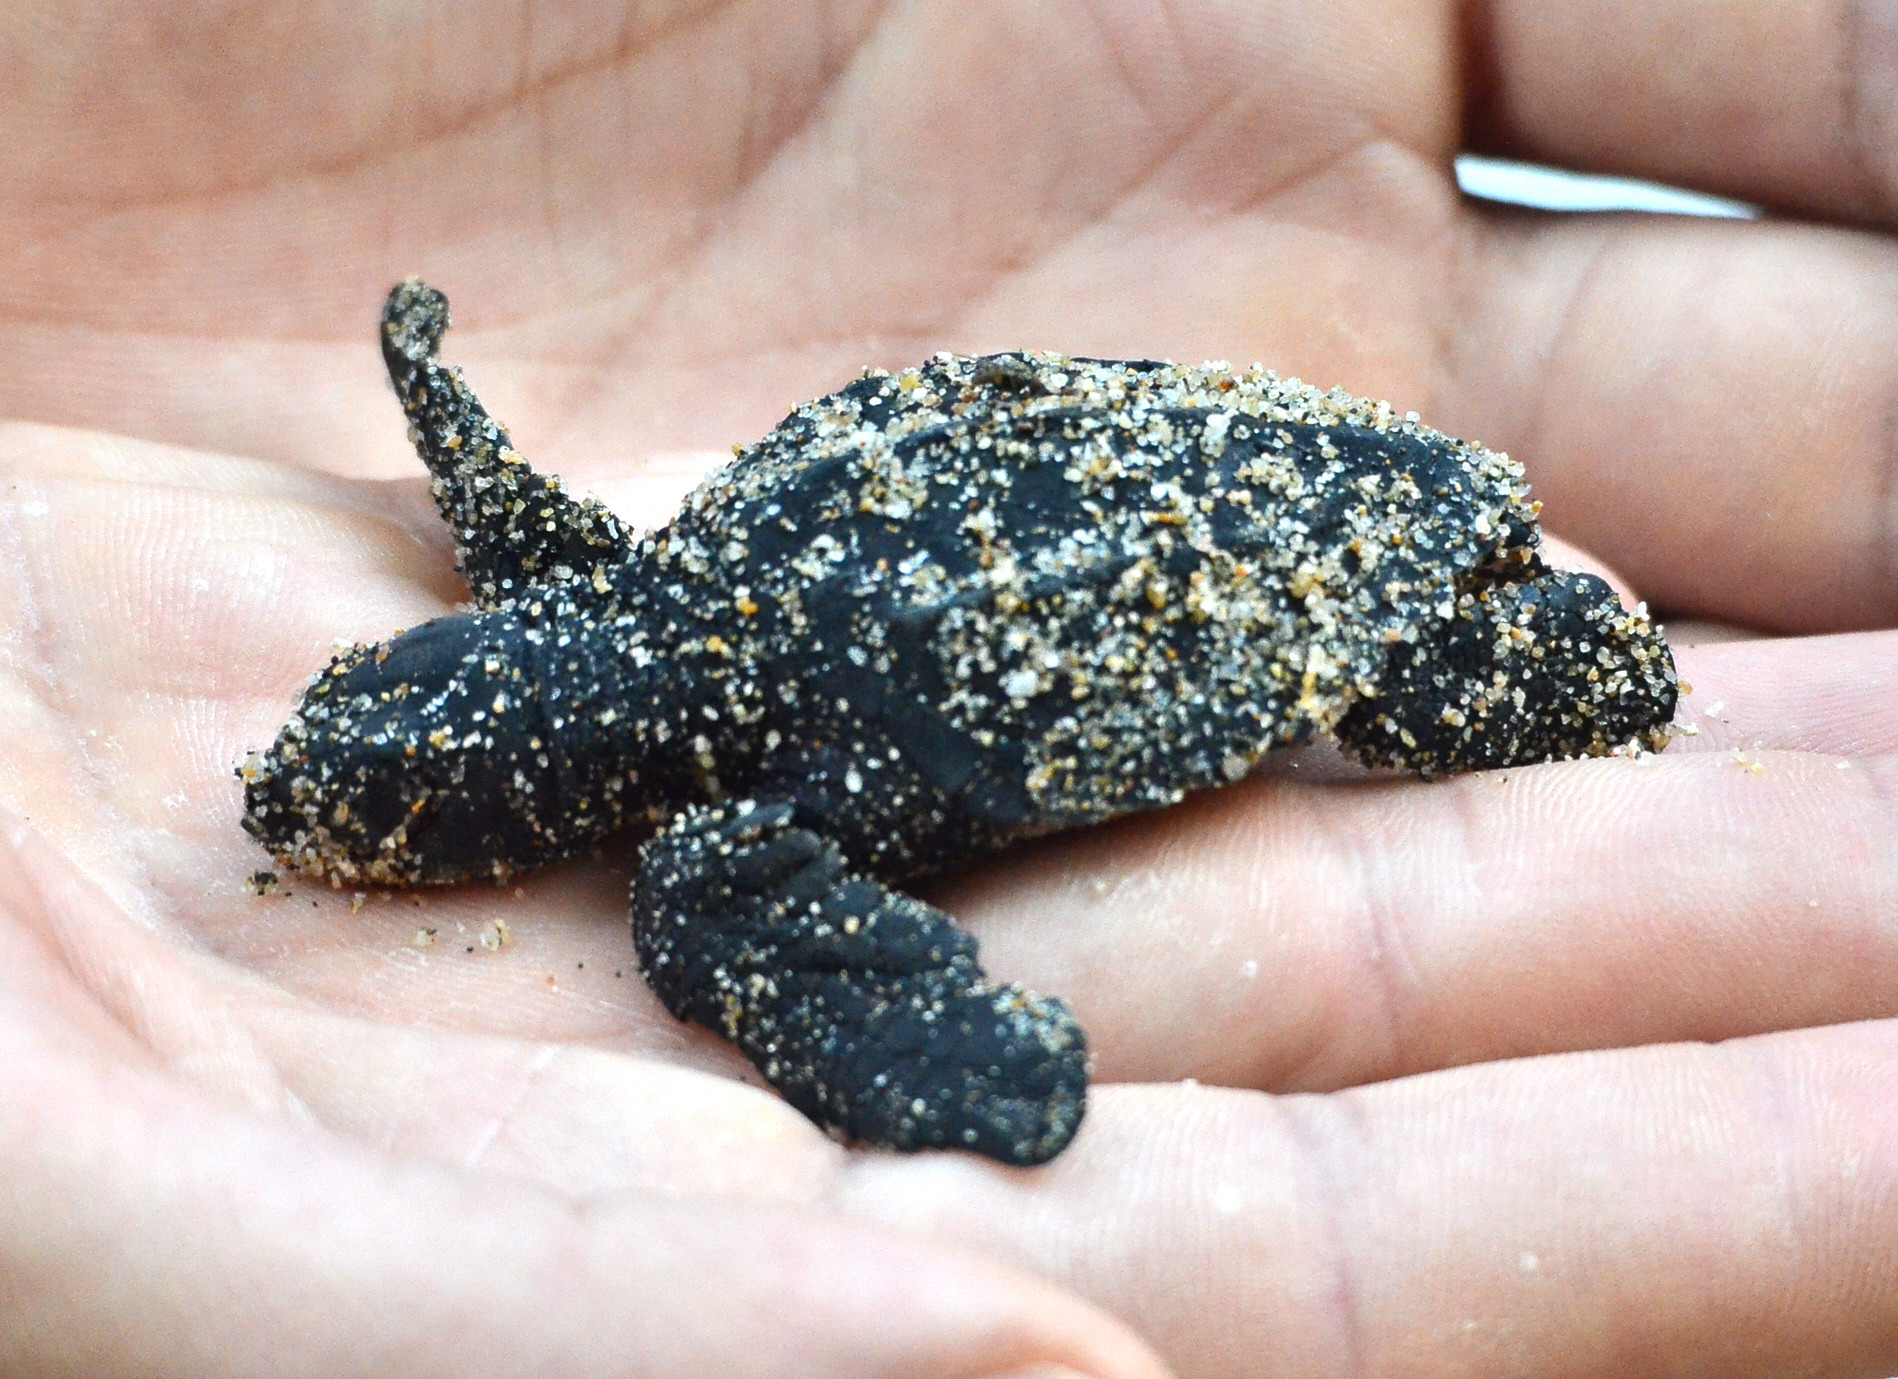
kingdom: Animalia
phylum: Chordata
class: Testudines
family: Cheloniidae
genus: Lepidochelys
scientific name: Lepidochelys olivacea
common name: Olive ridley
